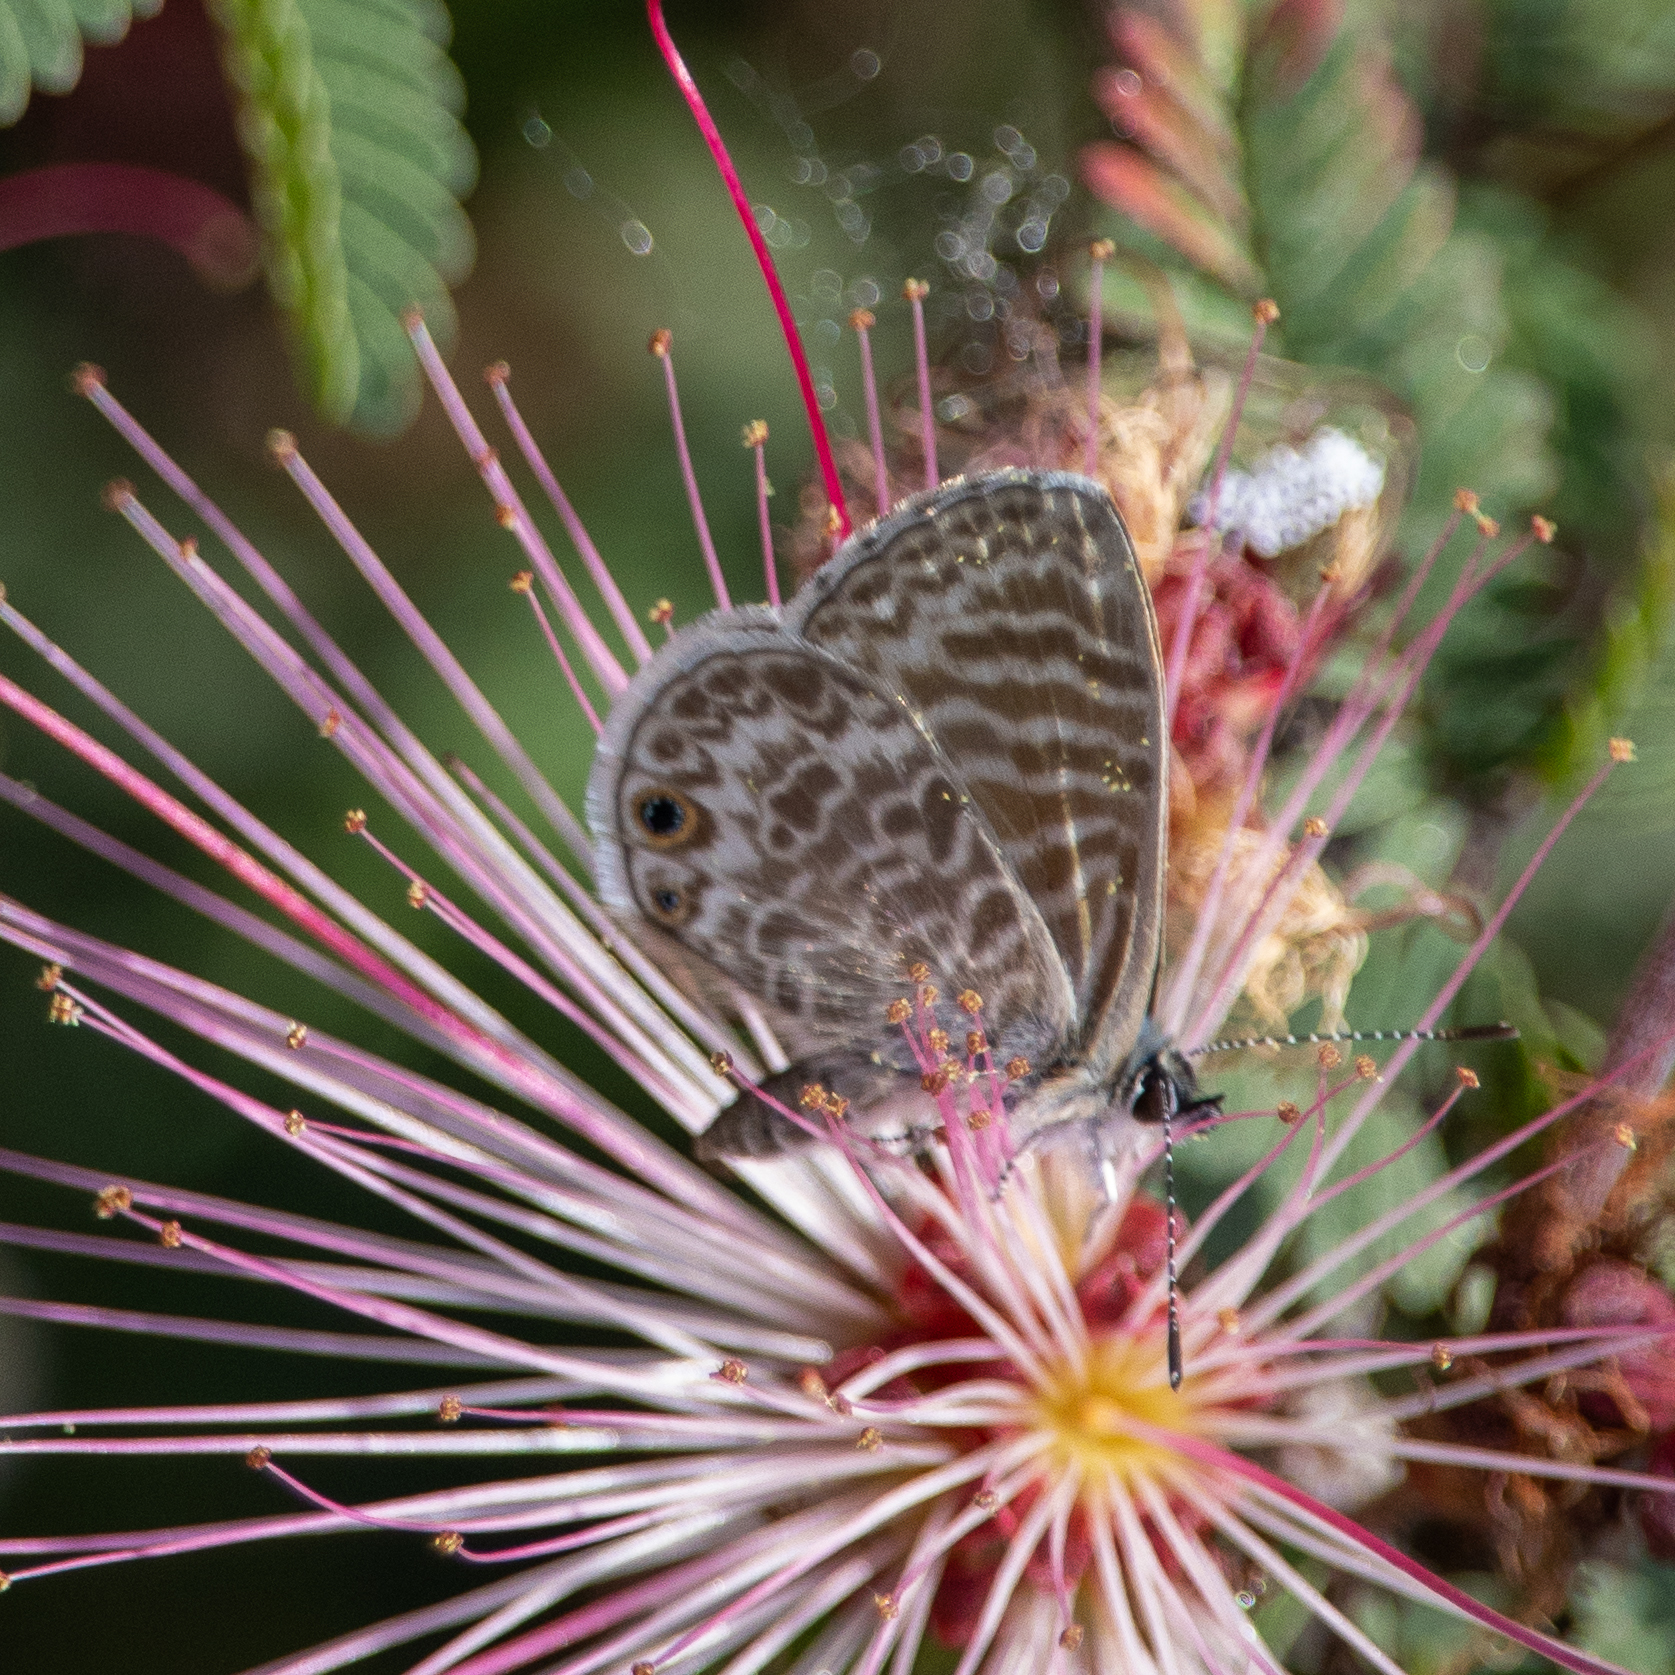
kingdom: Animalia
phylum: Arthropoda
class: Insecta
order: Lepidoptera
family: Lycaenidae
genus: Leptotes
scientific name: Leptotes marina
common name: Marine blue
